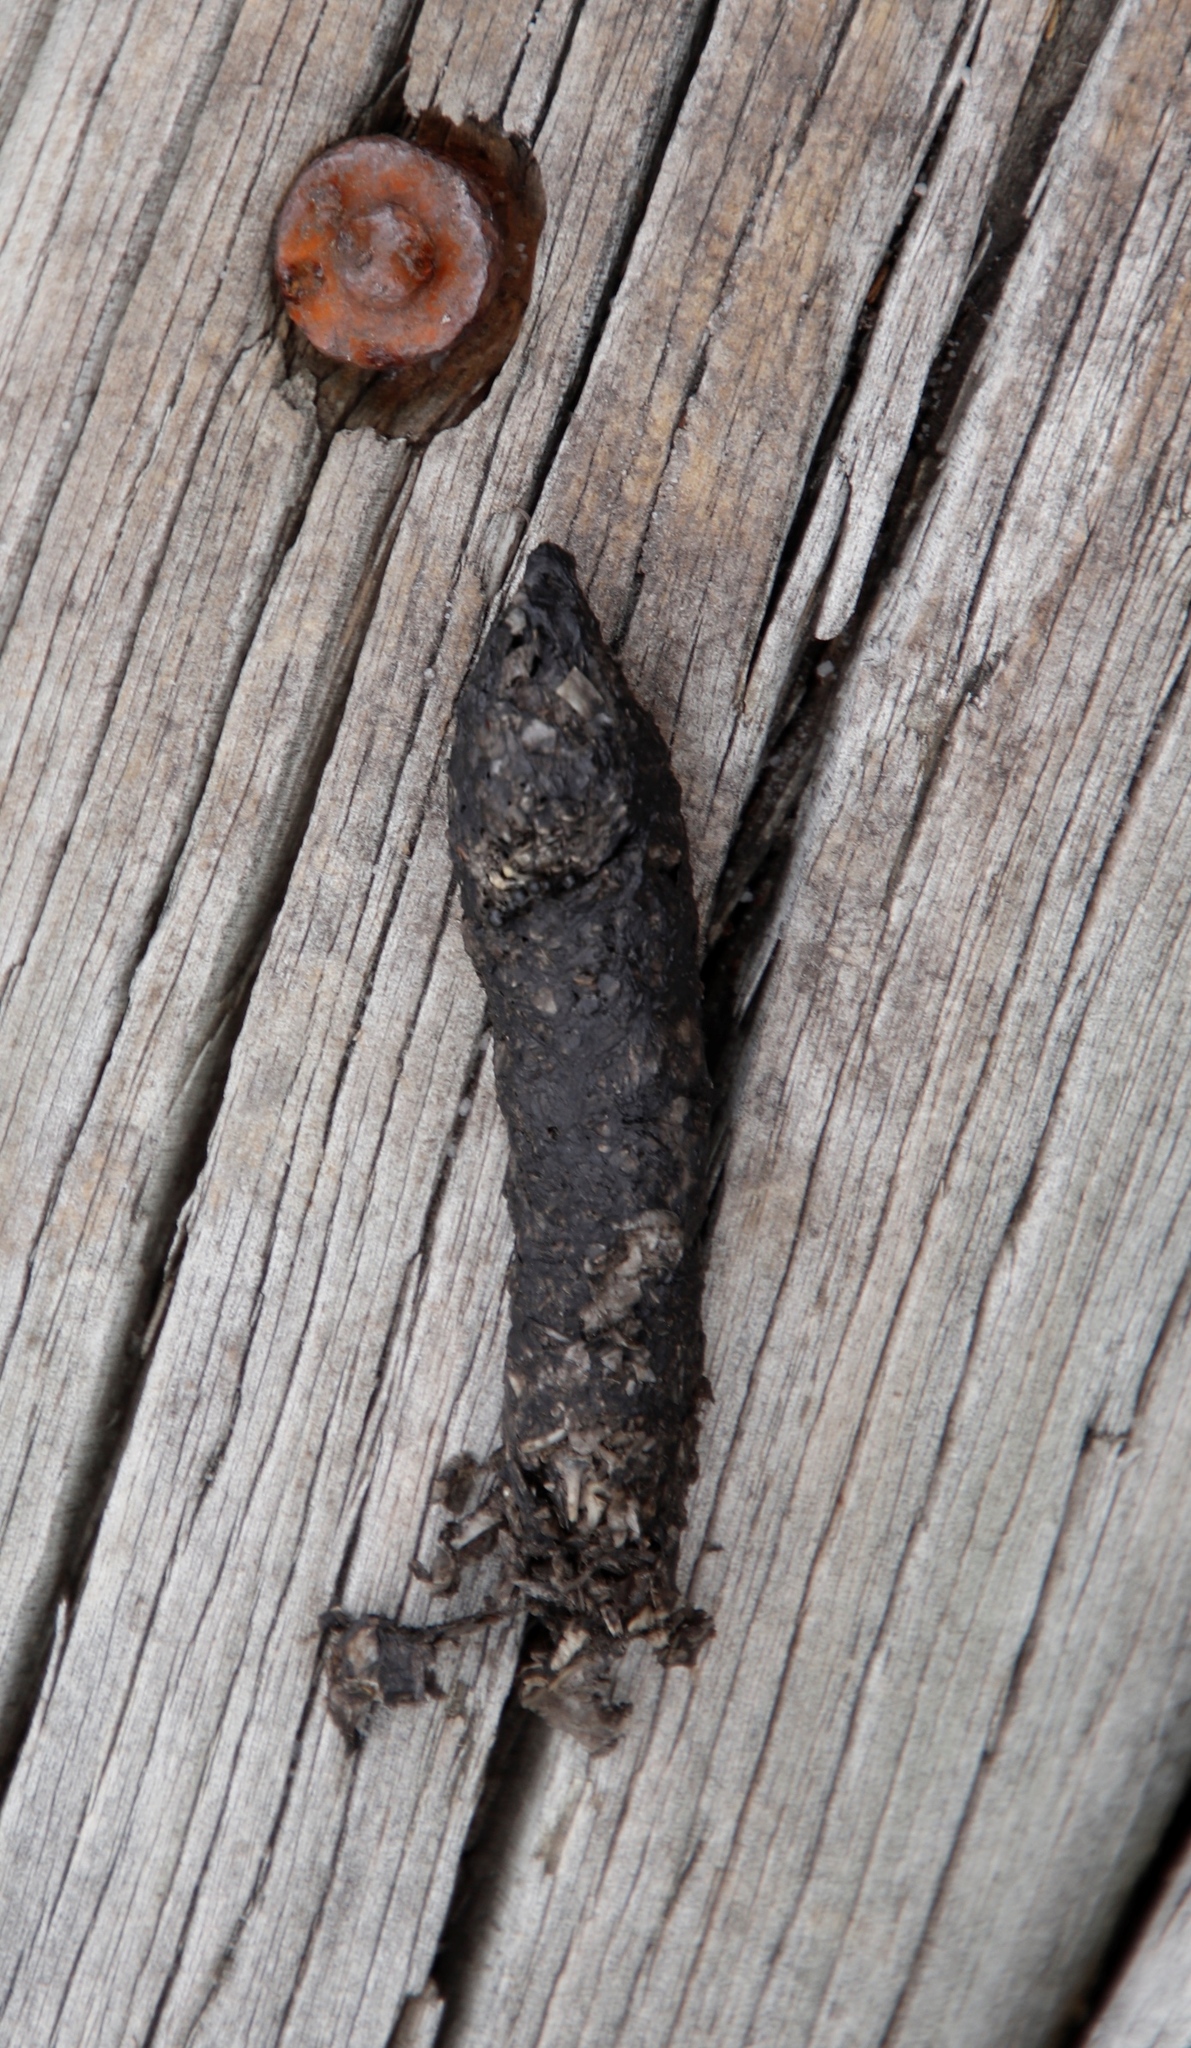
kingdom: Animalia
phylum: Chordata
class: Mammalia
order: Carnivora
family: Herpestidae
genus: Galerella
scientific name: Galerella pulverulenta
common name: Cape gray mongoose
